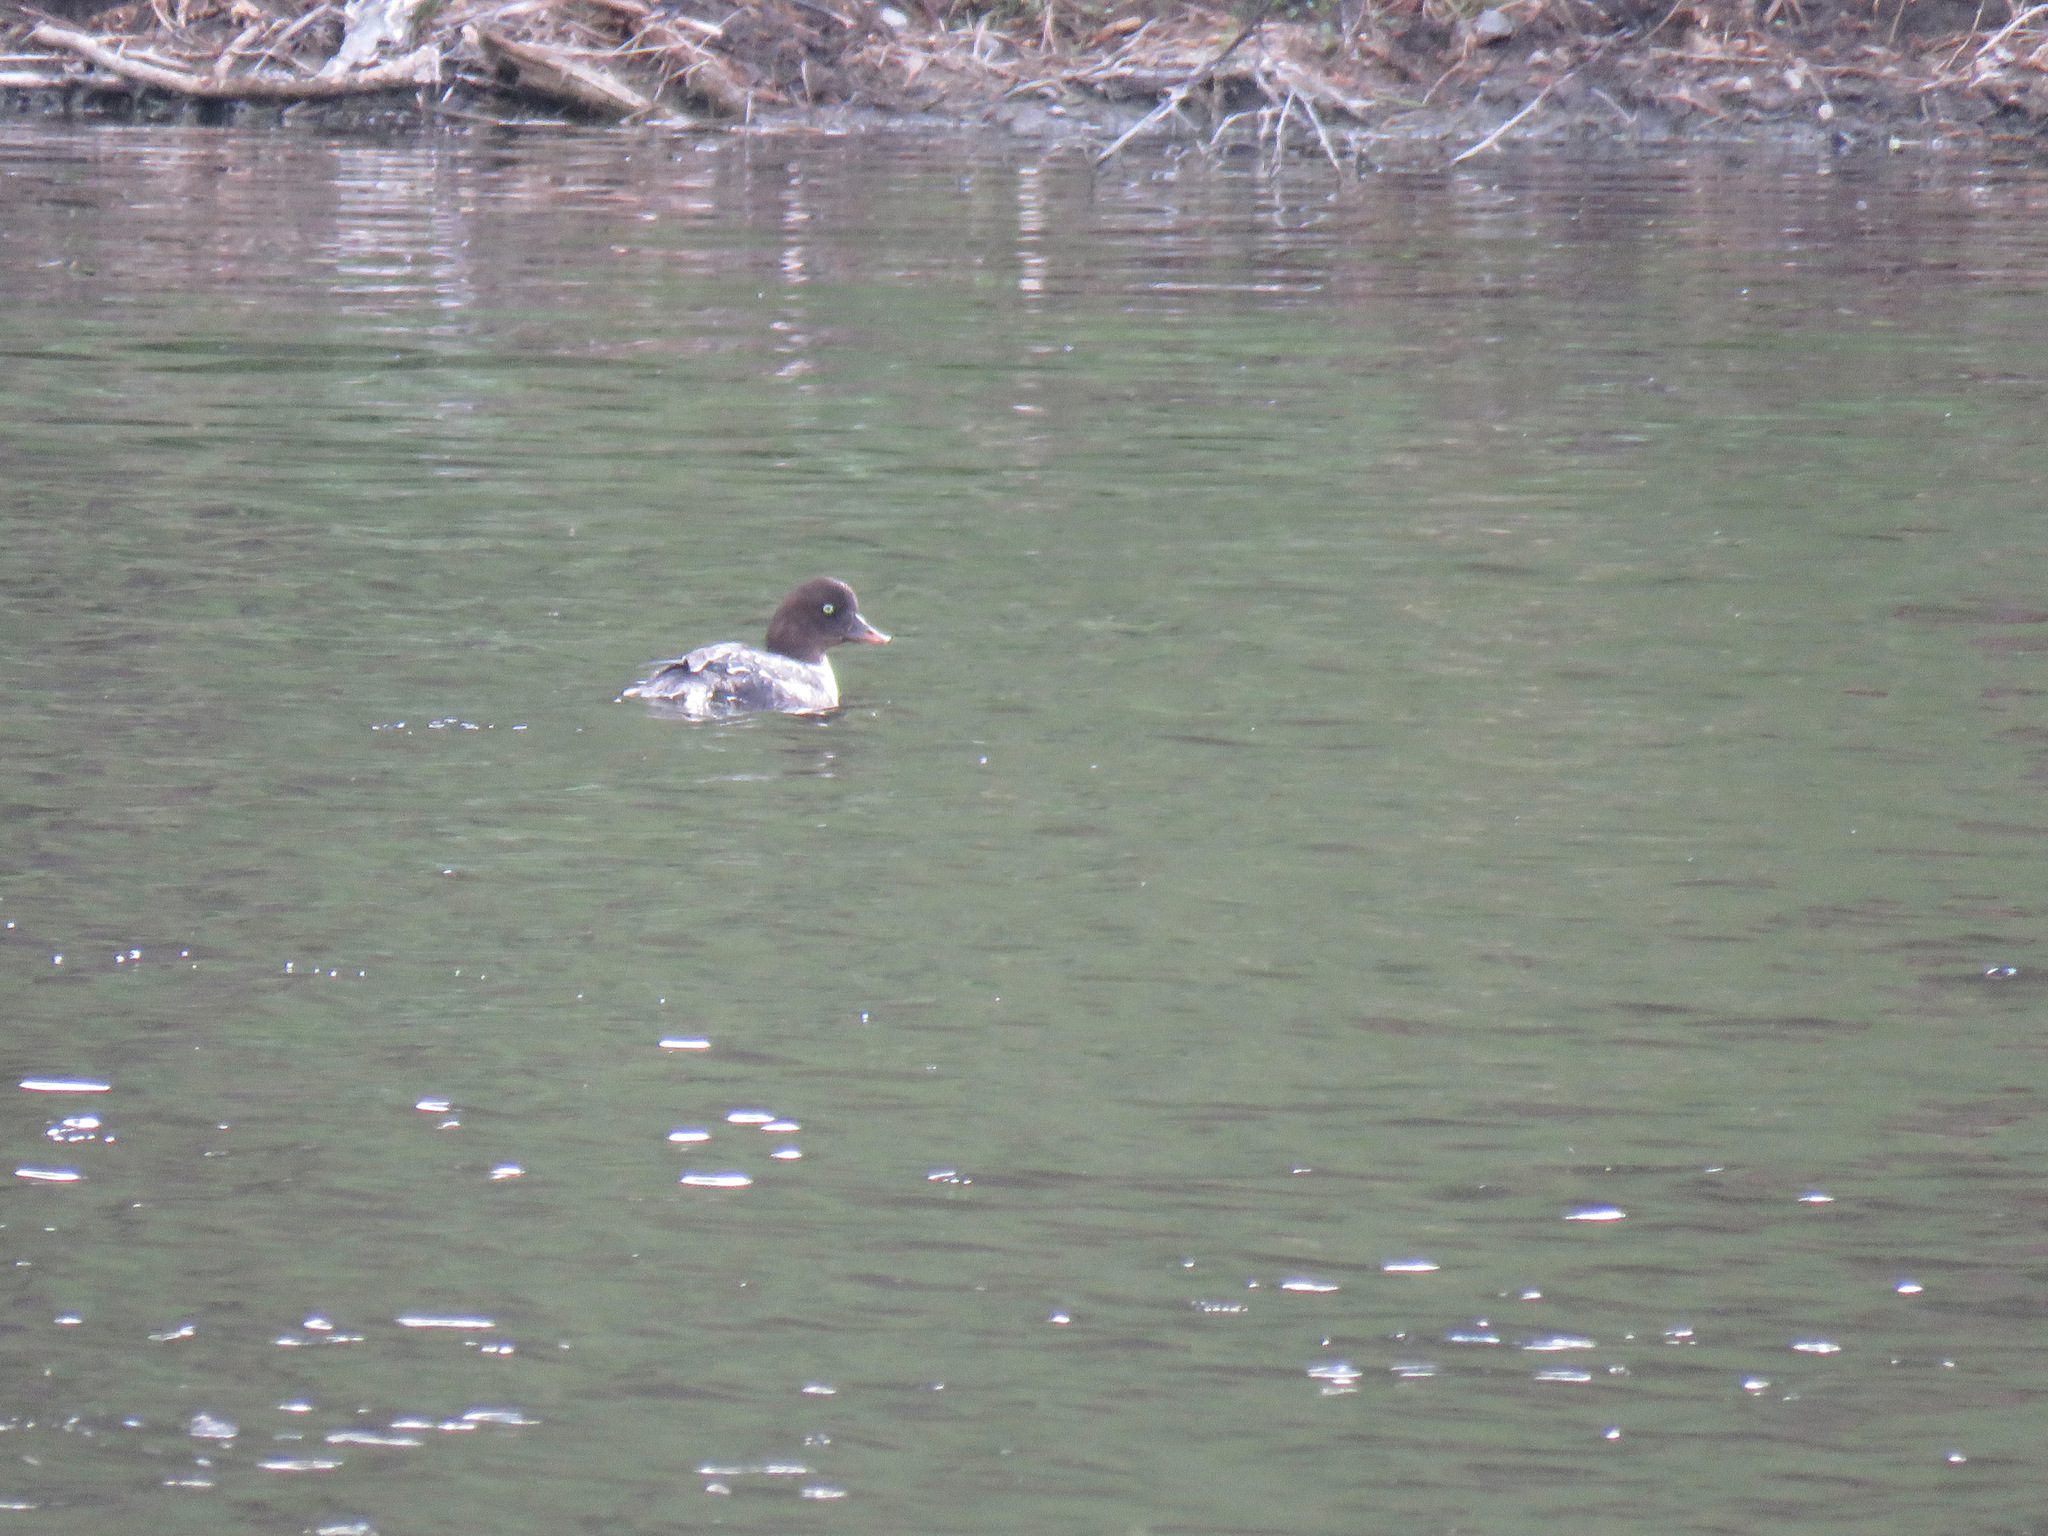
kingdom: Animalia
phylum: Chordata
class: Aves
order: Anseriformes
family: Anatidae
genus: Bucephala
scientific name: Bucephala islandica
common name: Barrow's goldeneye
